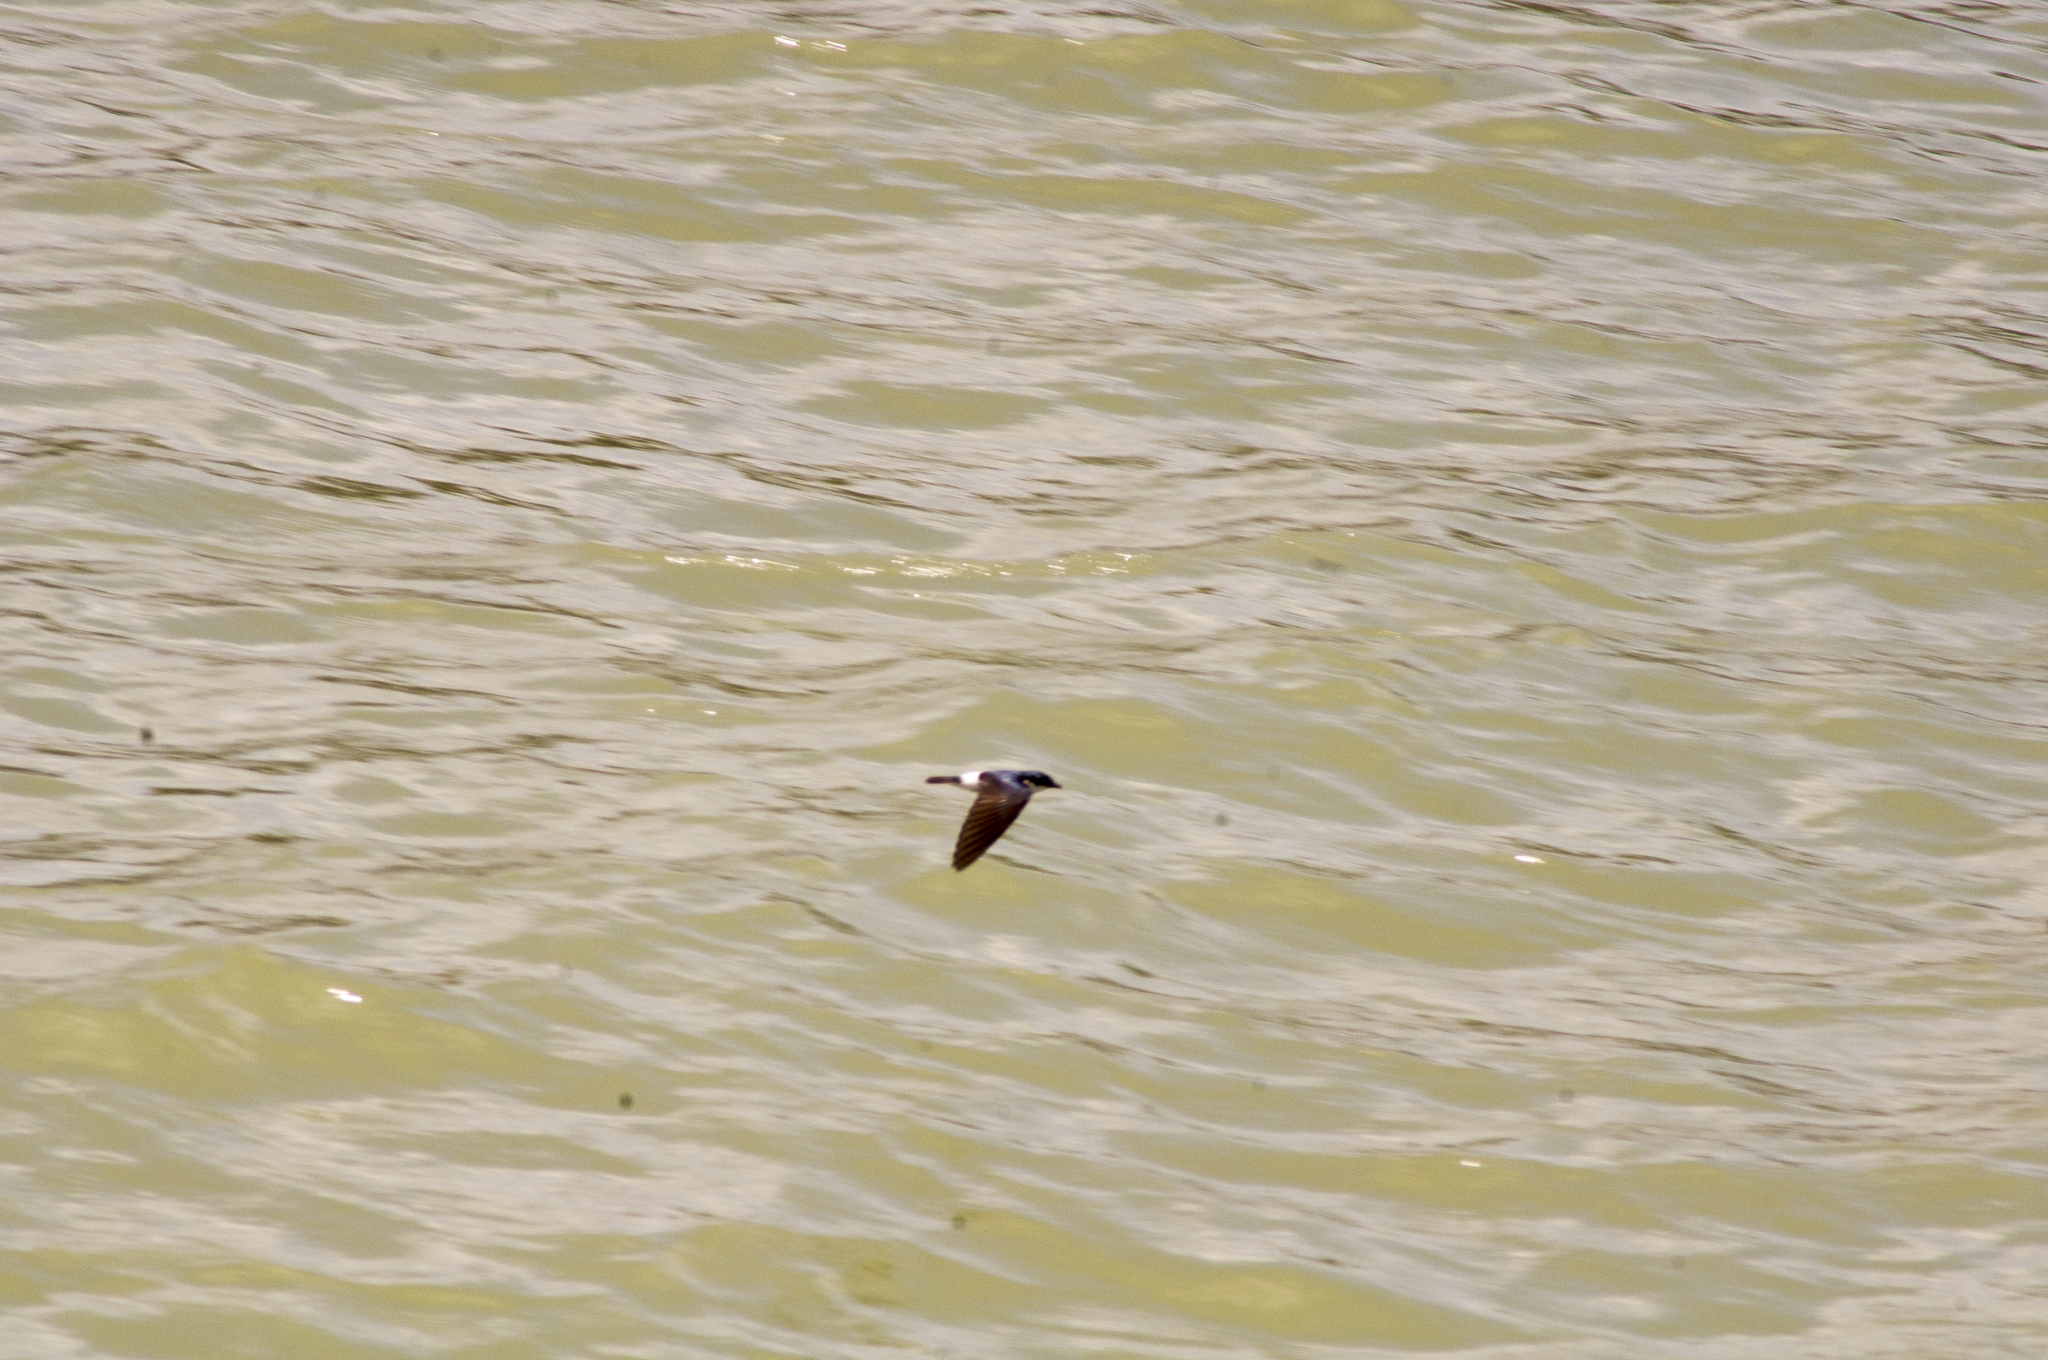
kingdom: Animalia
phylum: Chordata
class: Aves
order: Passeriformes
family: Hirundinidae
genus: Tachycineta
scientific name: Tachycineta albilinea
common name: Mangrove swallow
